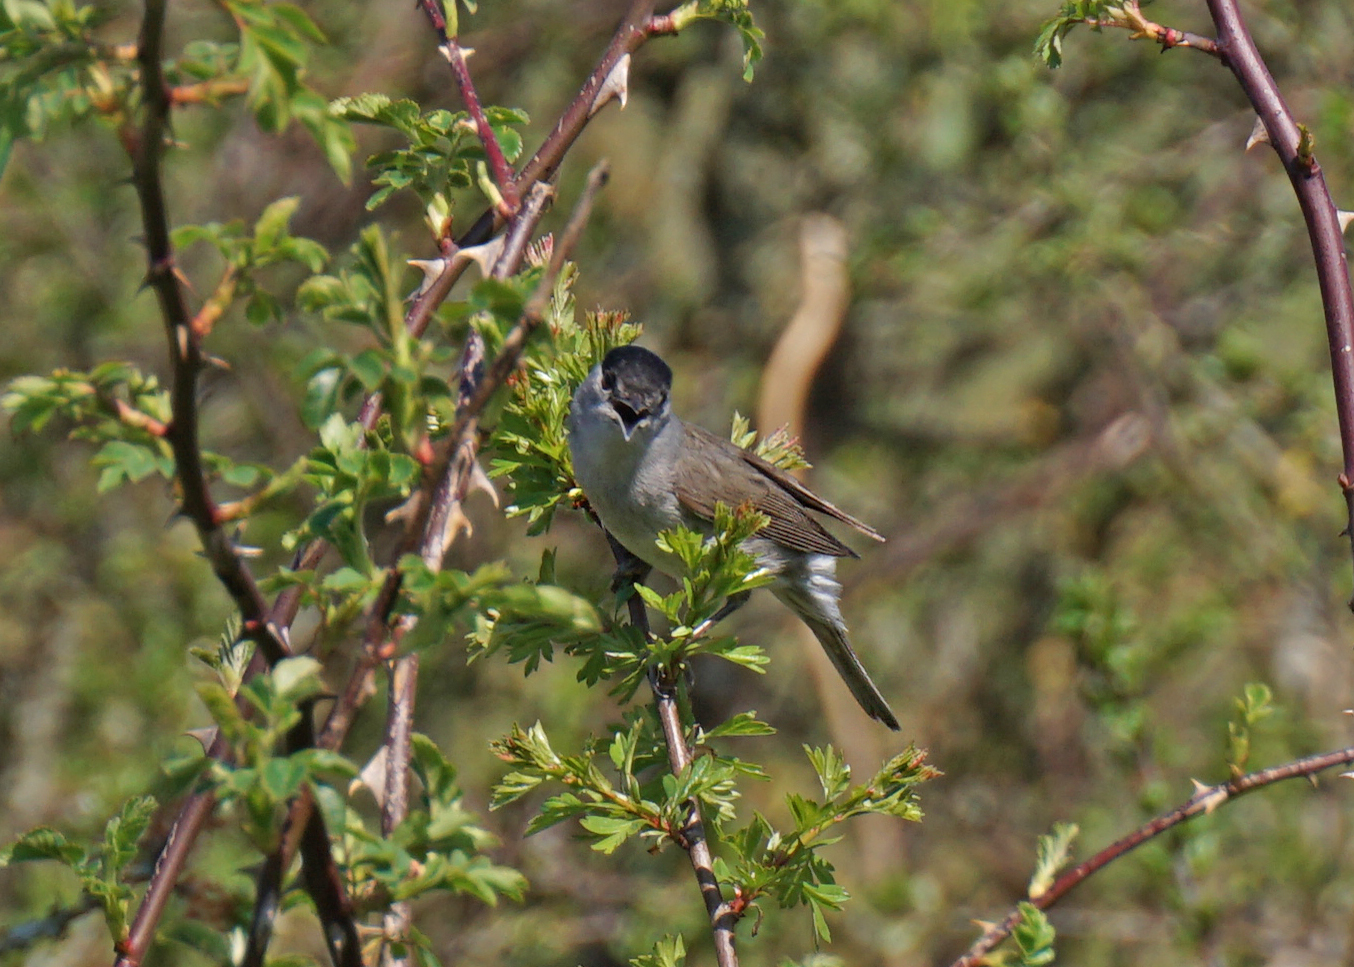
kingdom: Animalia
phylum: Chordata
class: Aves
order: Passeriformes
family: Sylviidae
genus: Sylvia
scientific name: Sylvia atricapilla
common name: Eurasian blackcap
